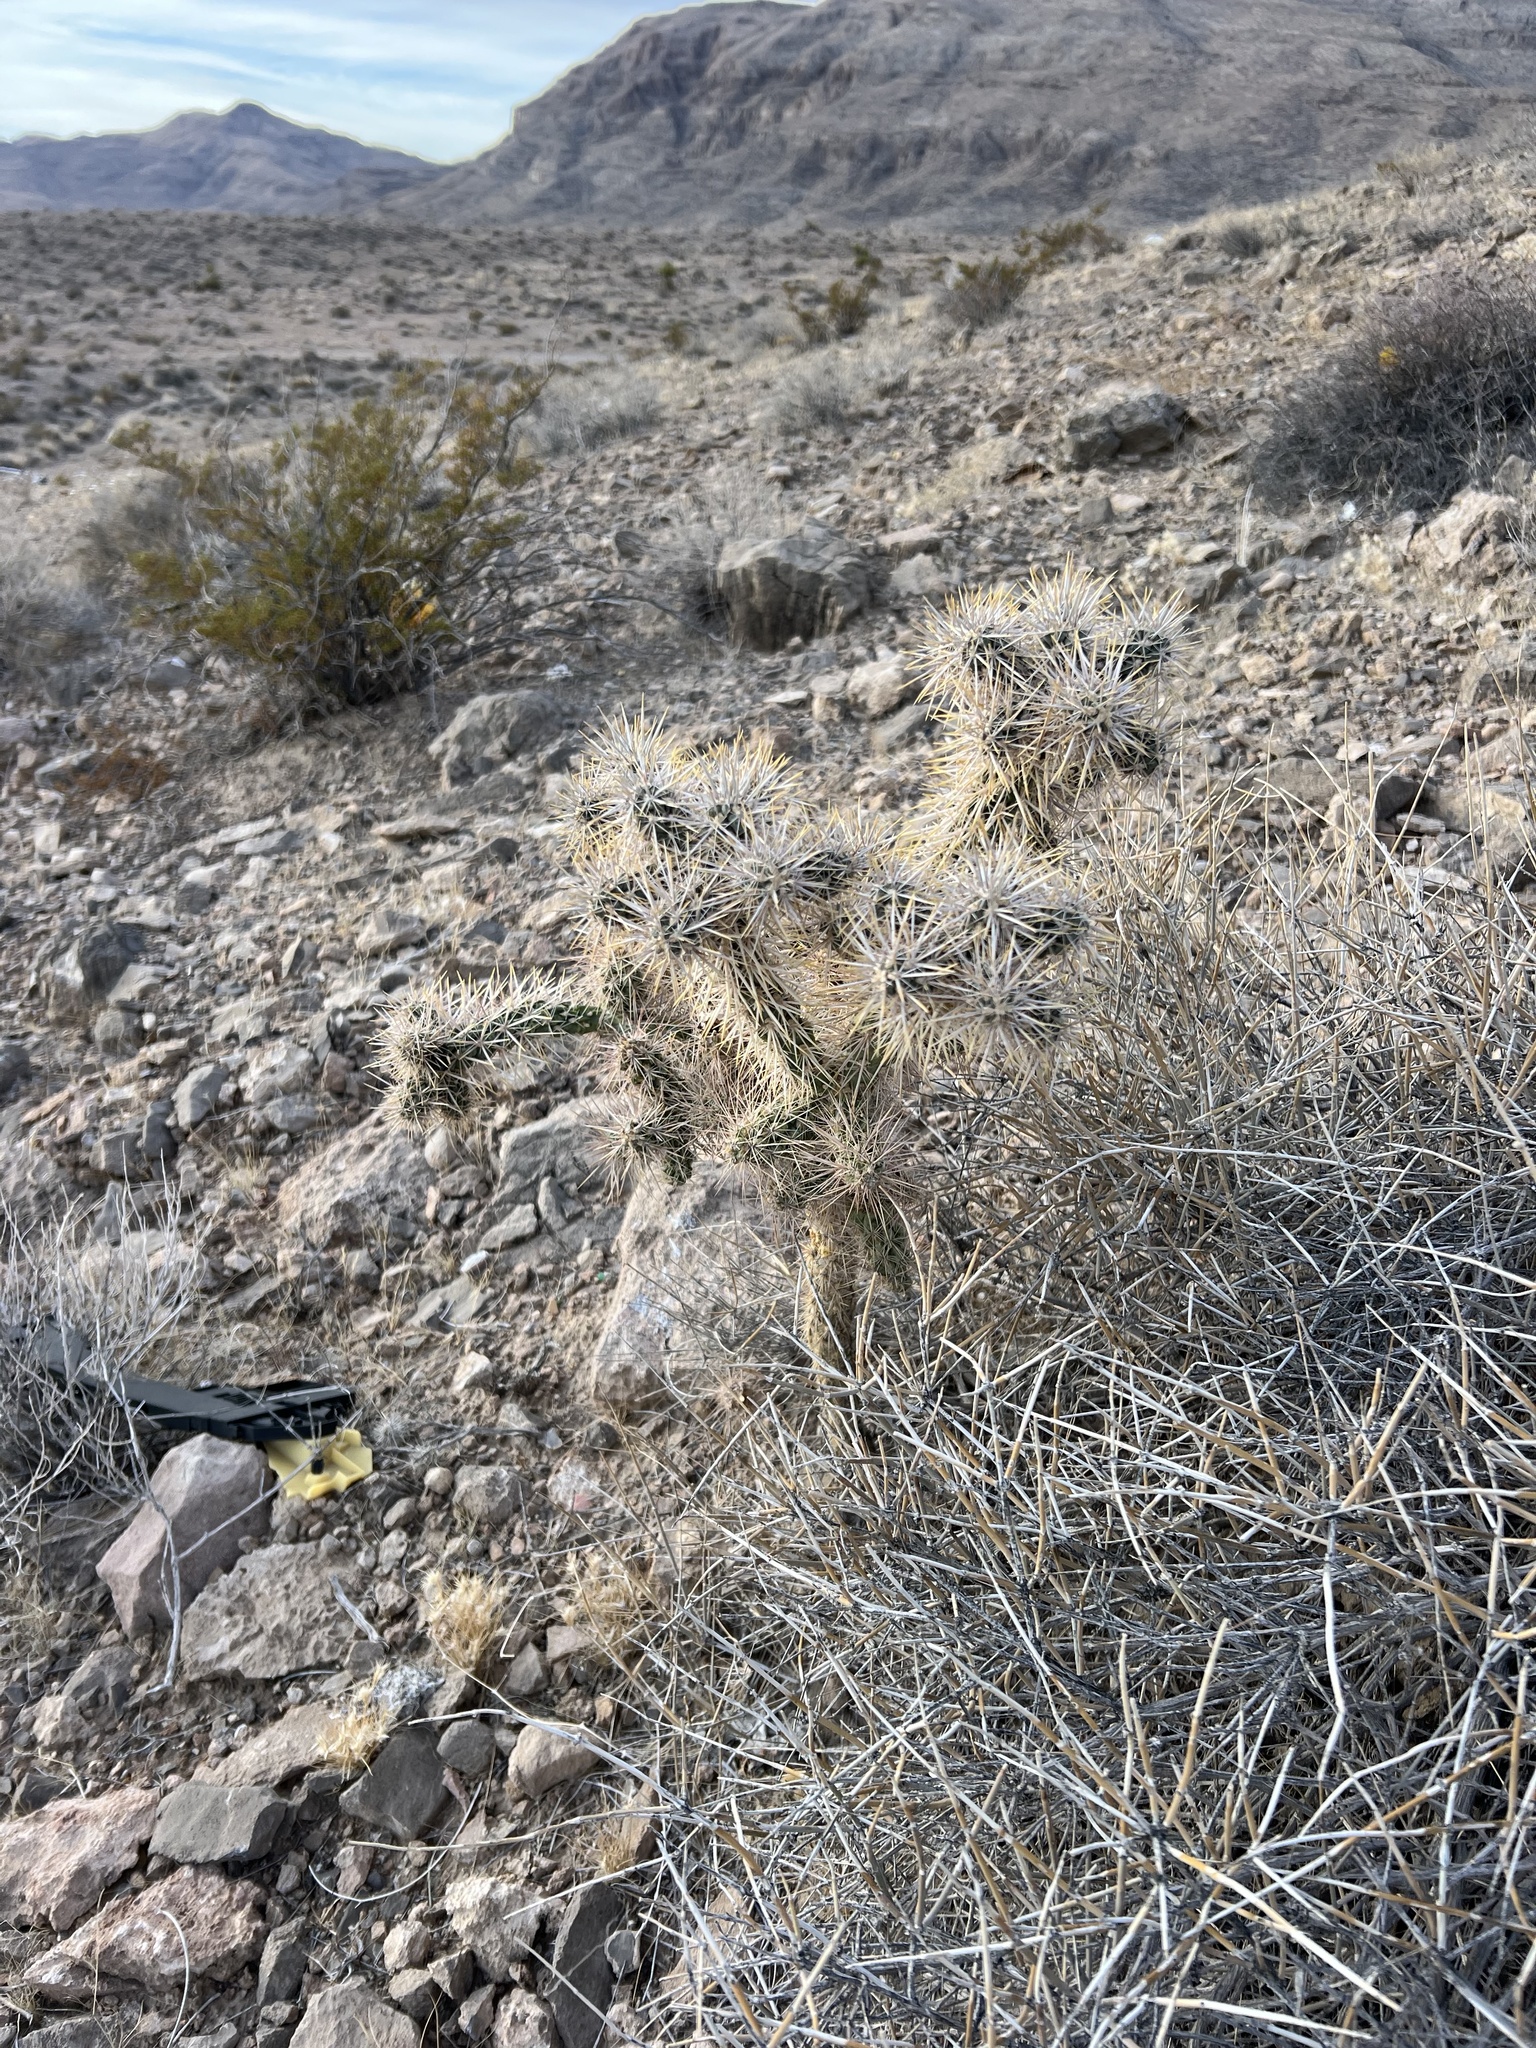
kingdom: Plantae
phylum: Tracheophyta
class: Magnoliopsida
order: Caryophyllales
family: Cactaceae
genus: Cylindropuntia
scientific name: Cylindropuntia echinocarpa
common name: Ground cholla
